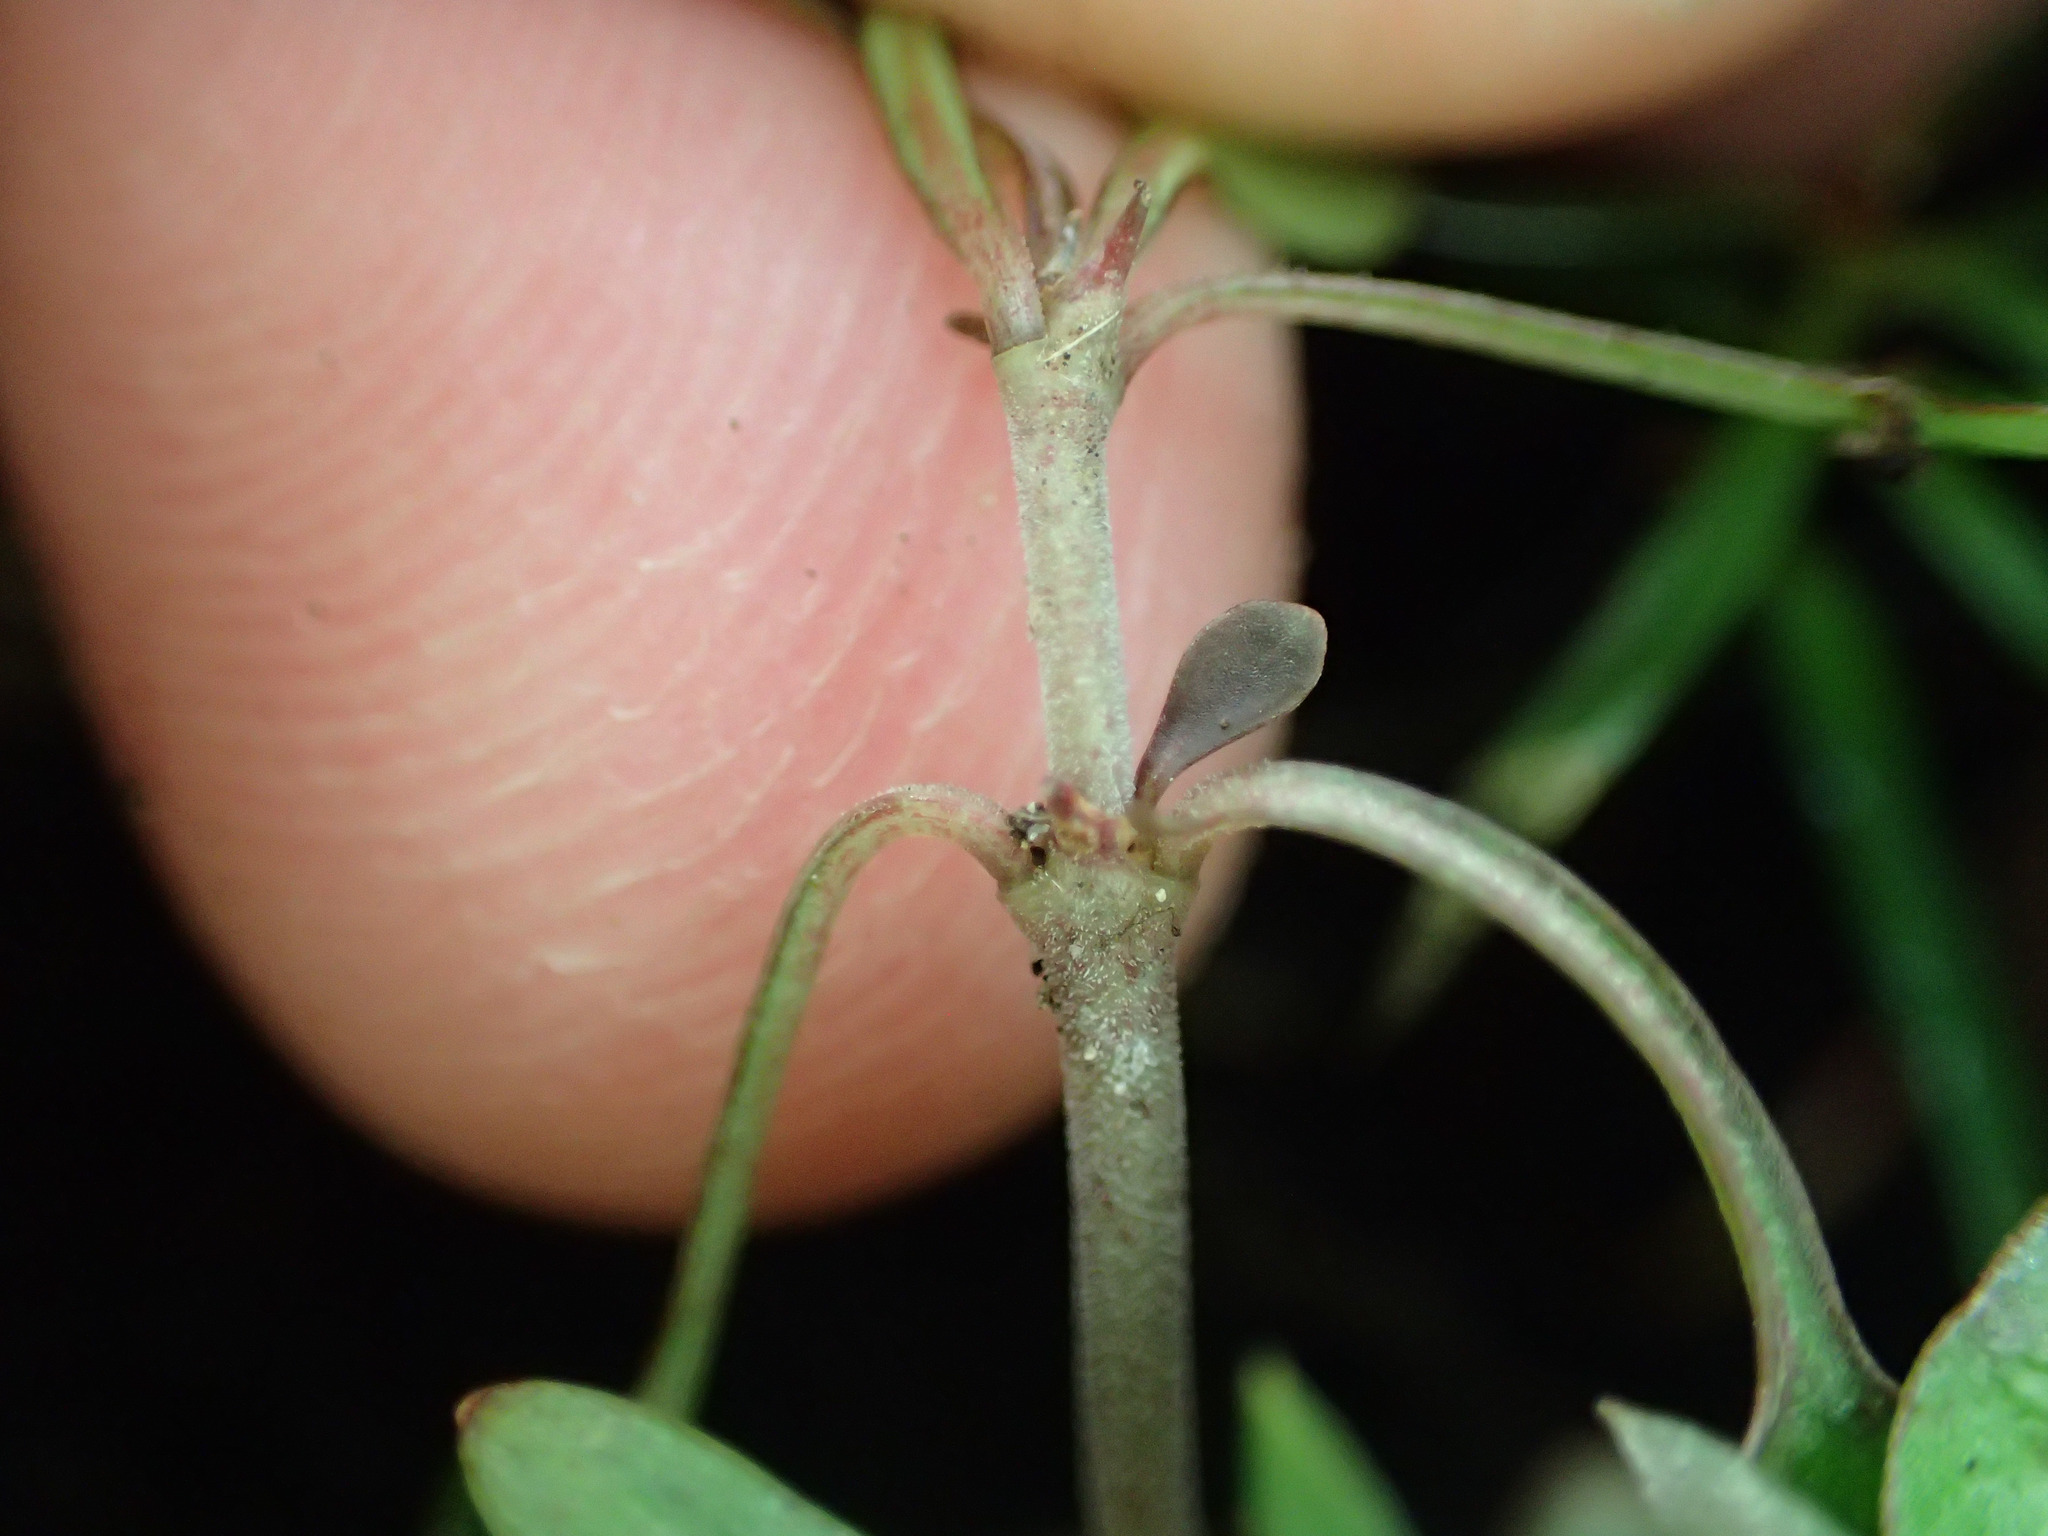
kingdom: Plantae
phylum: Tracheophyta
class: Magnoliopsida
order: Gentianales
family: Rubiaceae
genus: Coprosma
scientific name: Coprosma propinqua
